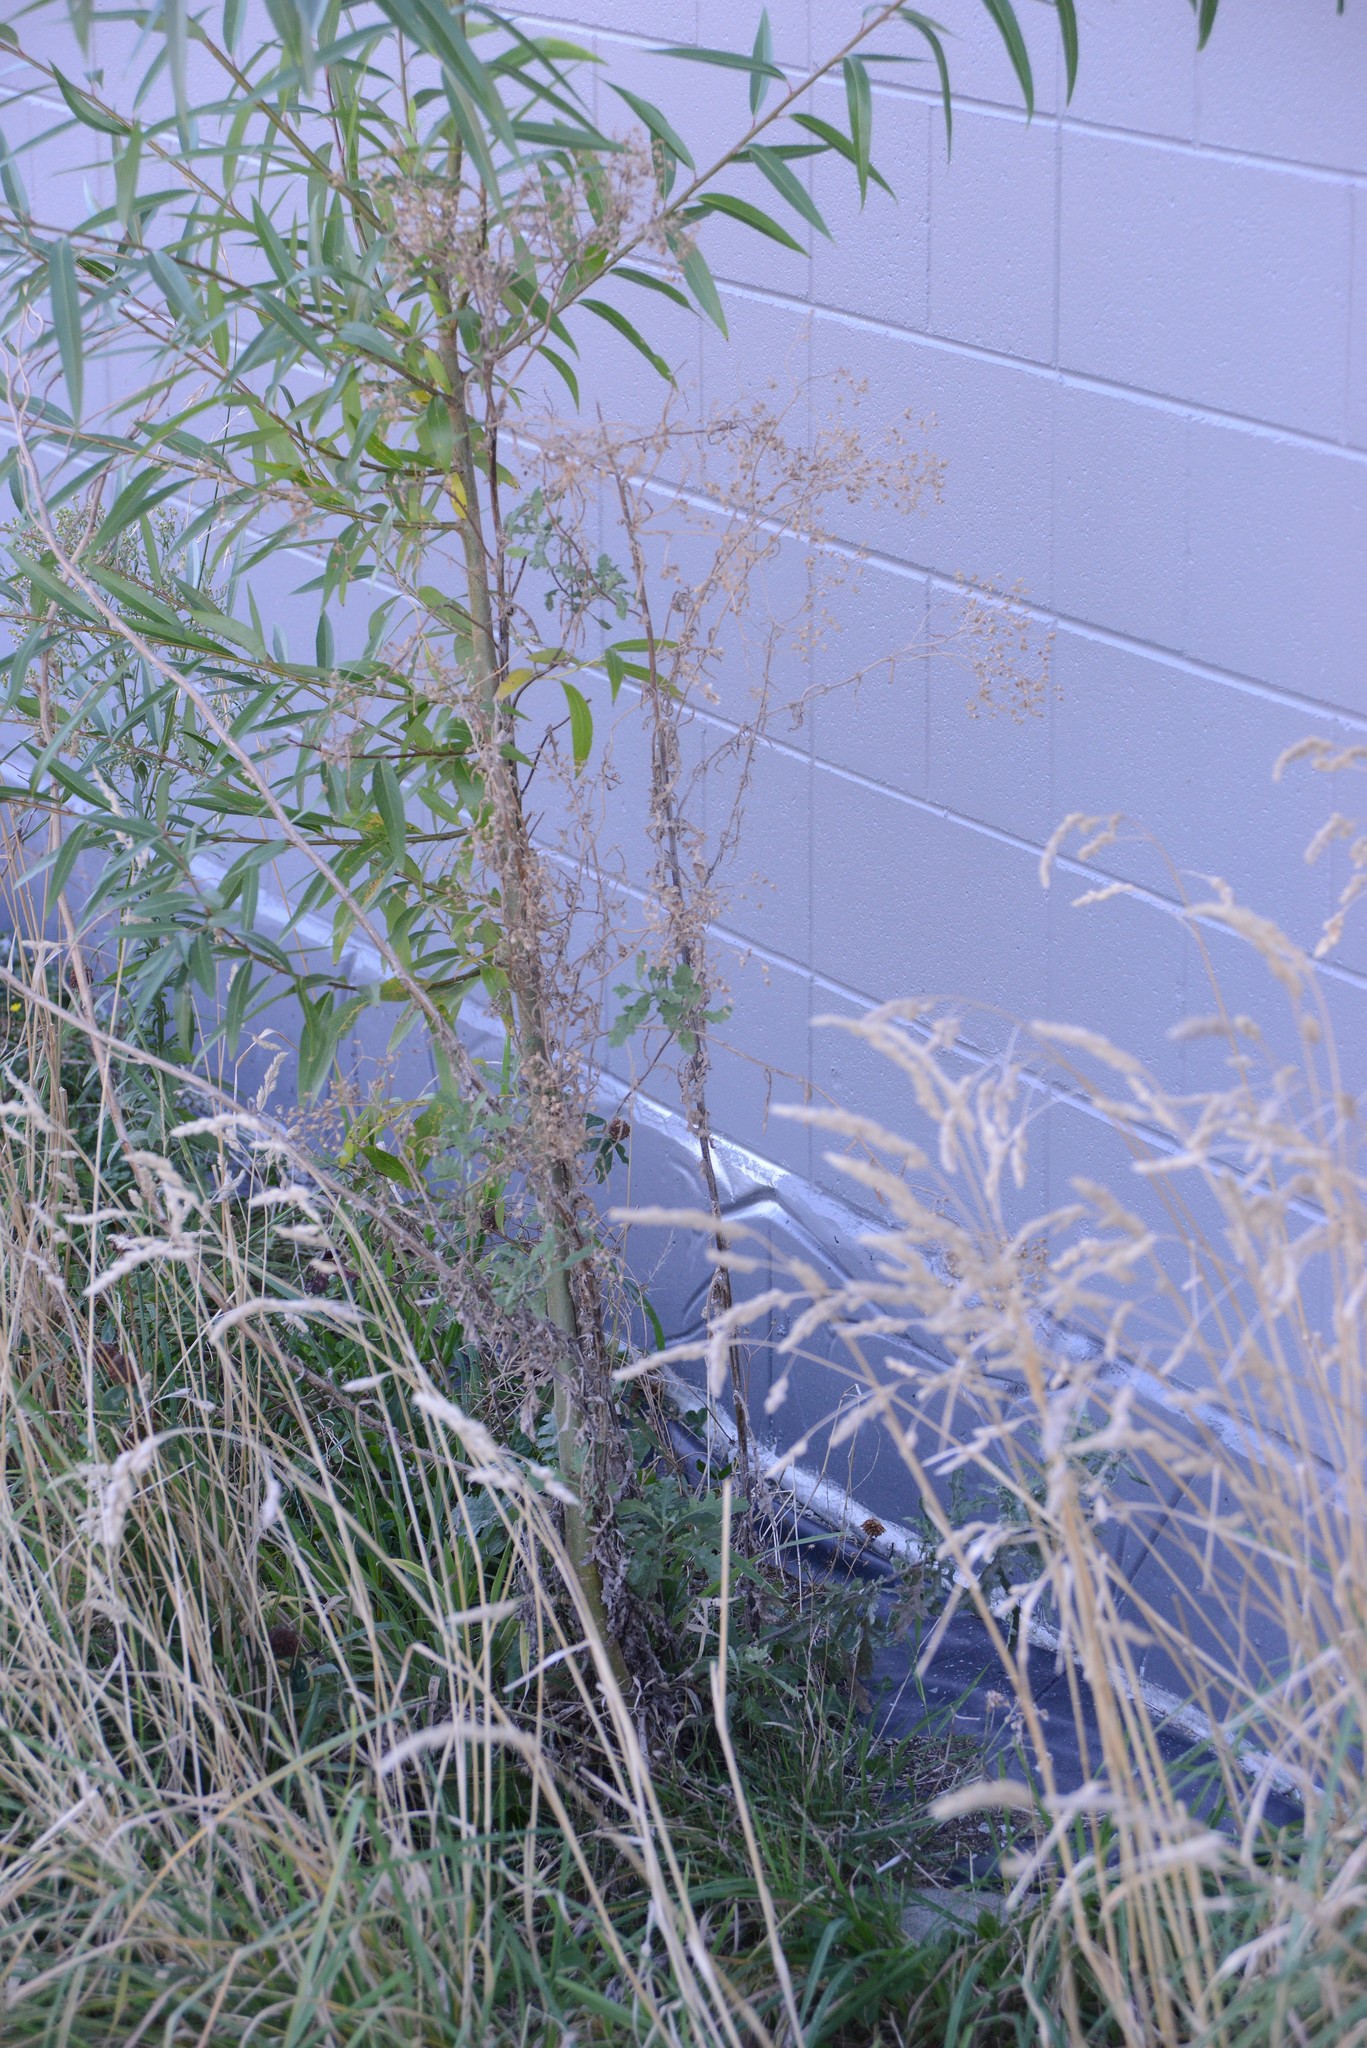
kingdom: Plantae
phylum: Tracheophyta
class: Magnoliopsida
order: Asterales
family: Asteraceae
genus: Senecio
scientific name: Senecio glomeratus
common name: Cutleaf burnweed
